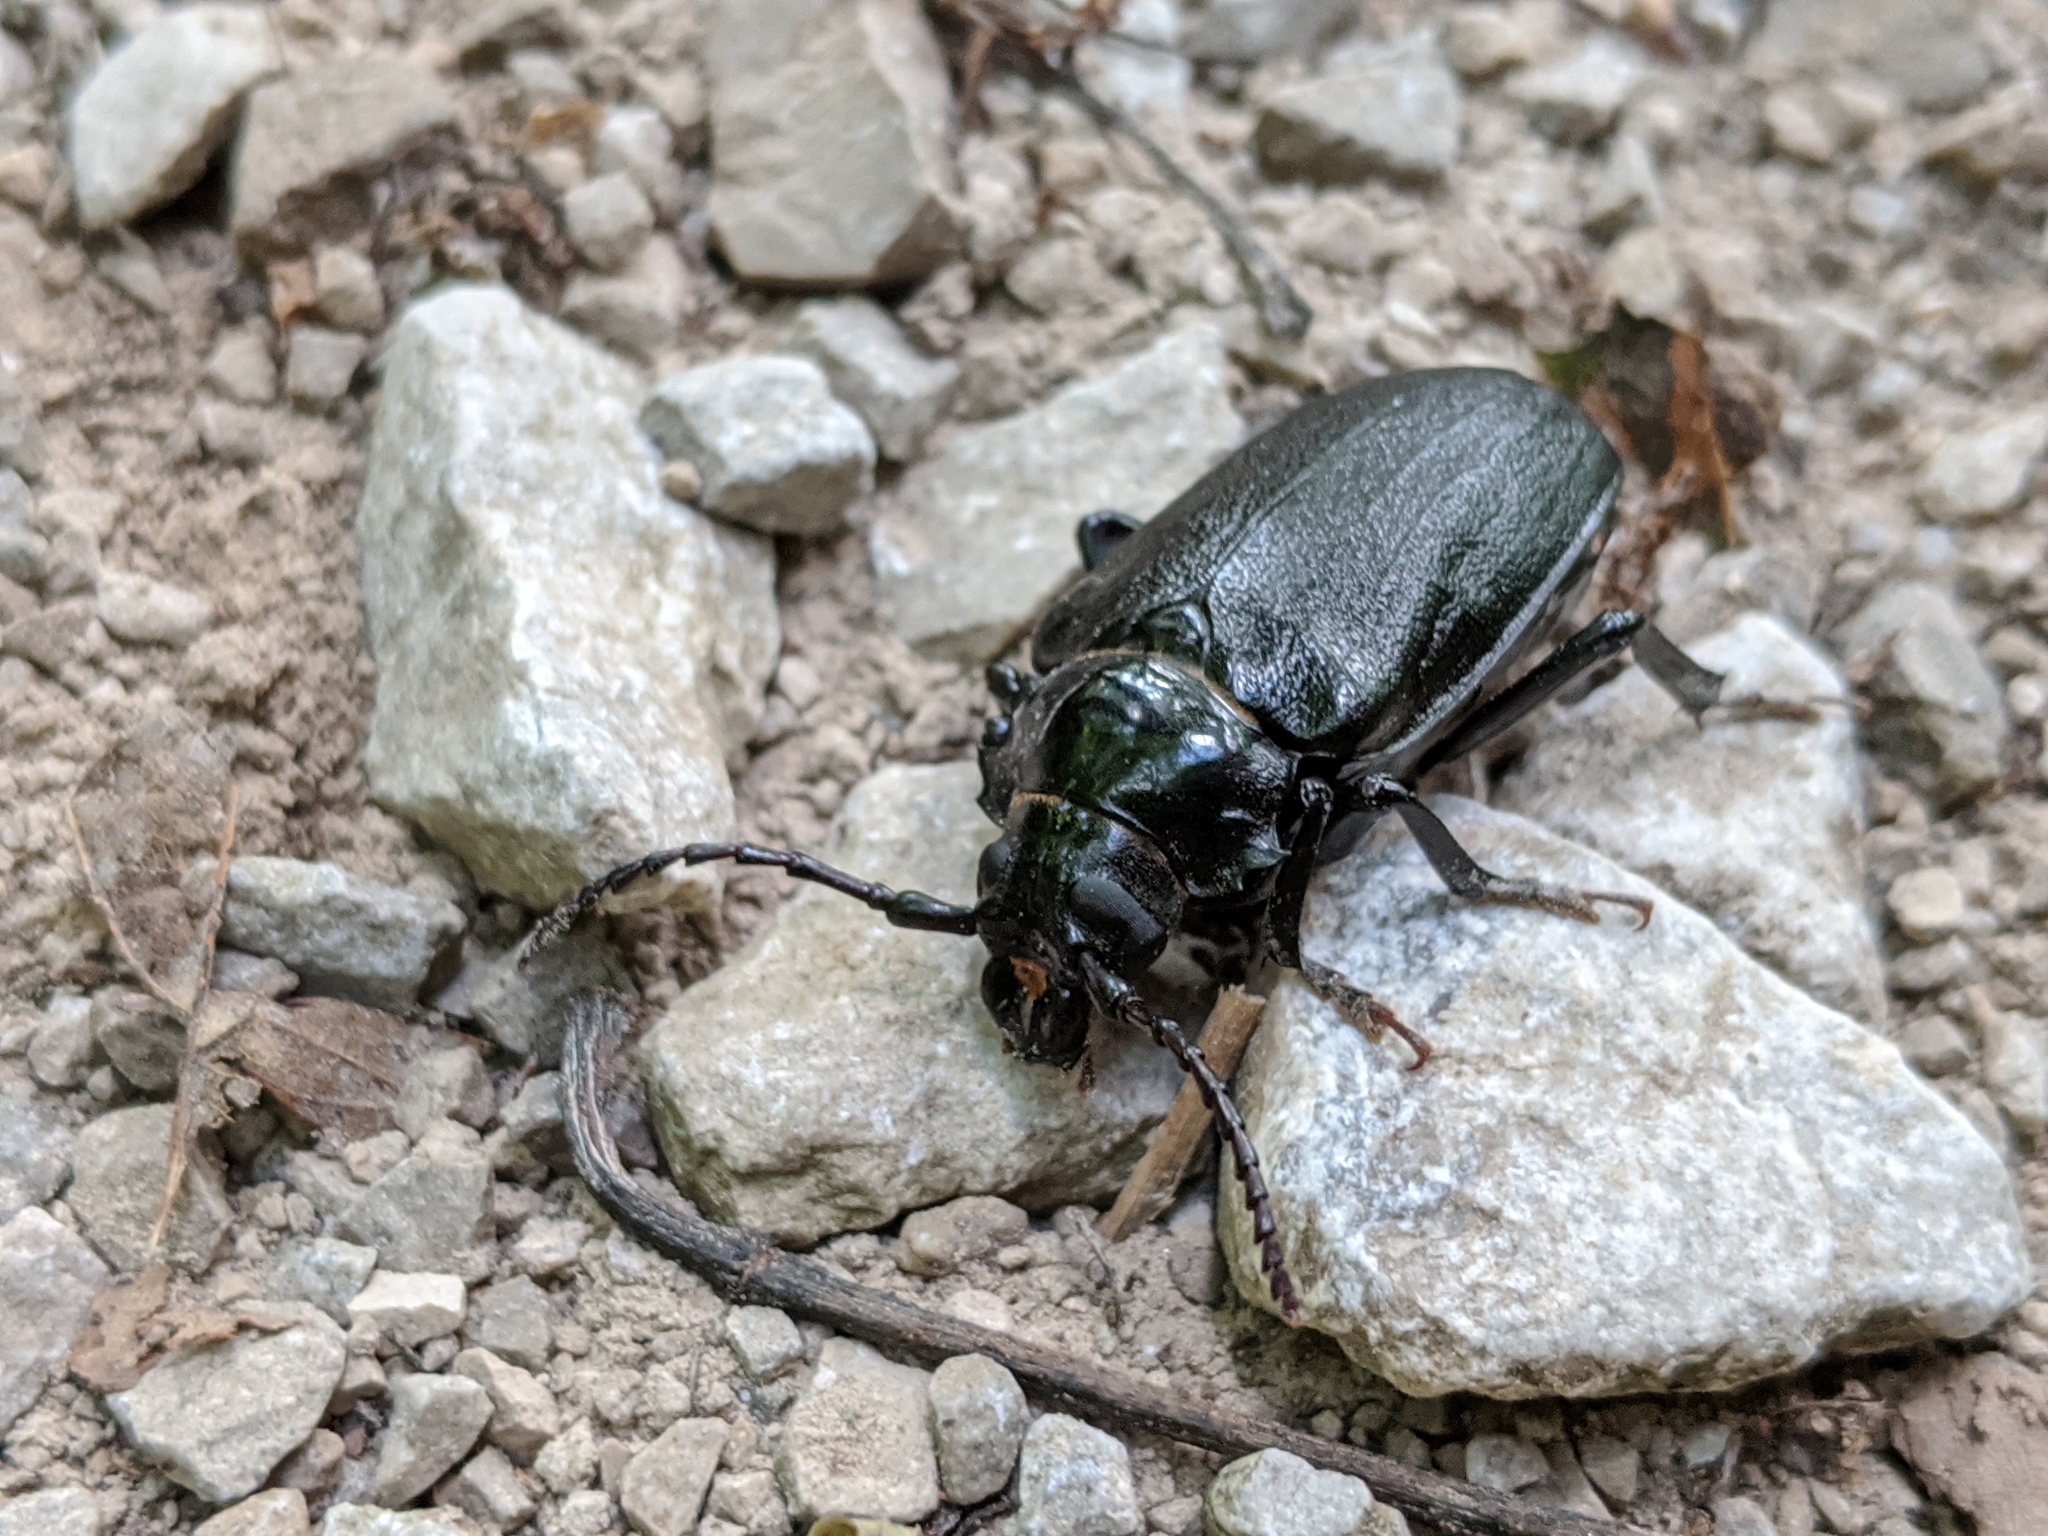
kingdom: Animalia
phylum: Arthropoda
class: Insecta
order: Coleoptera
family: Cerambycidae
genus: Prionus
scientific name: Prionus laticollis
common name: Broad necked prionus
